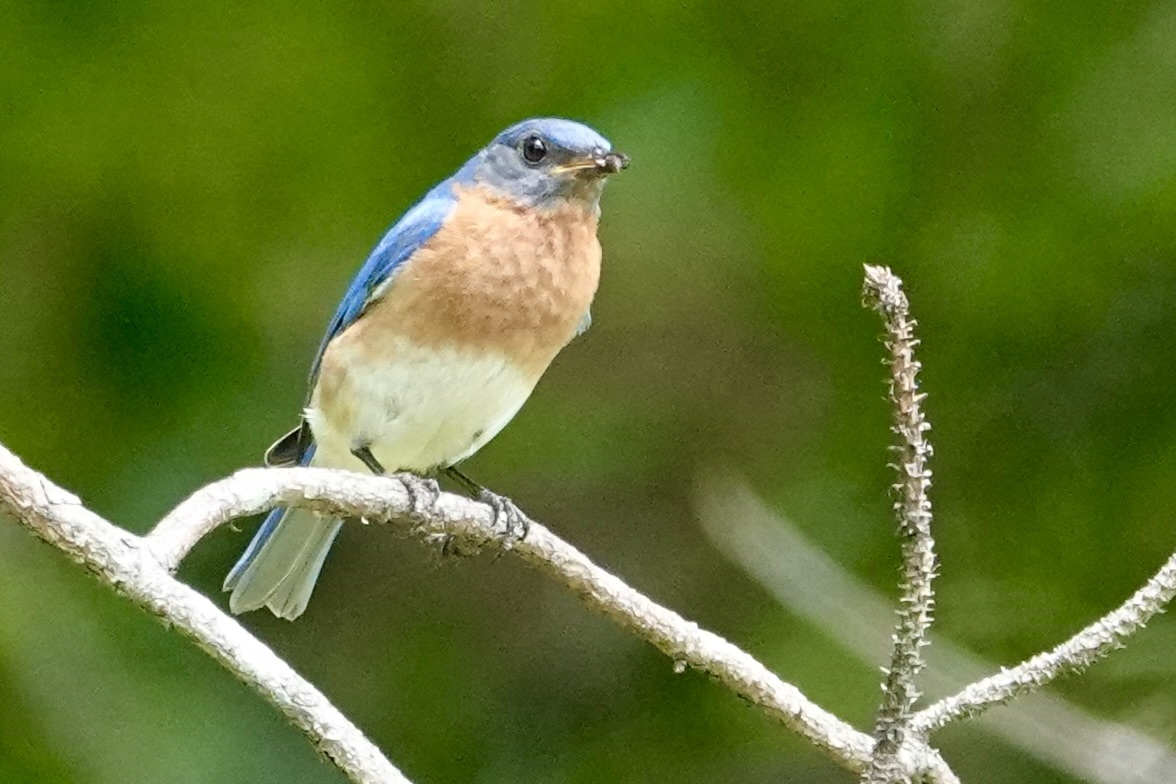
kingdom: Animalia
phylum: Chordata
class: Aves
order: Passeriformes
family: Turdidae
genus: Sialia
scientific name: Sialia sialis
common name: Eastern bluebird
